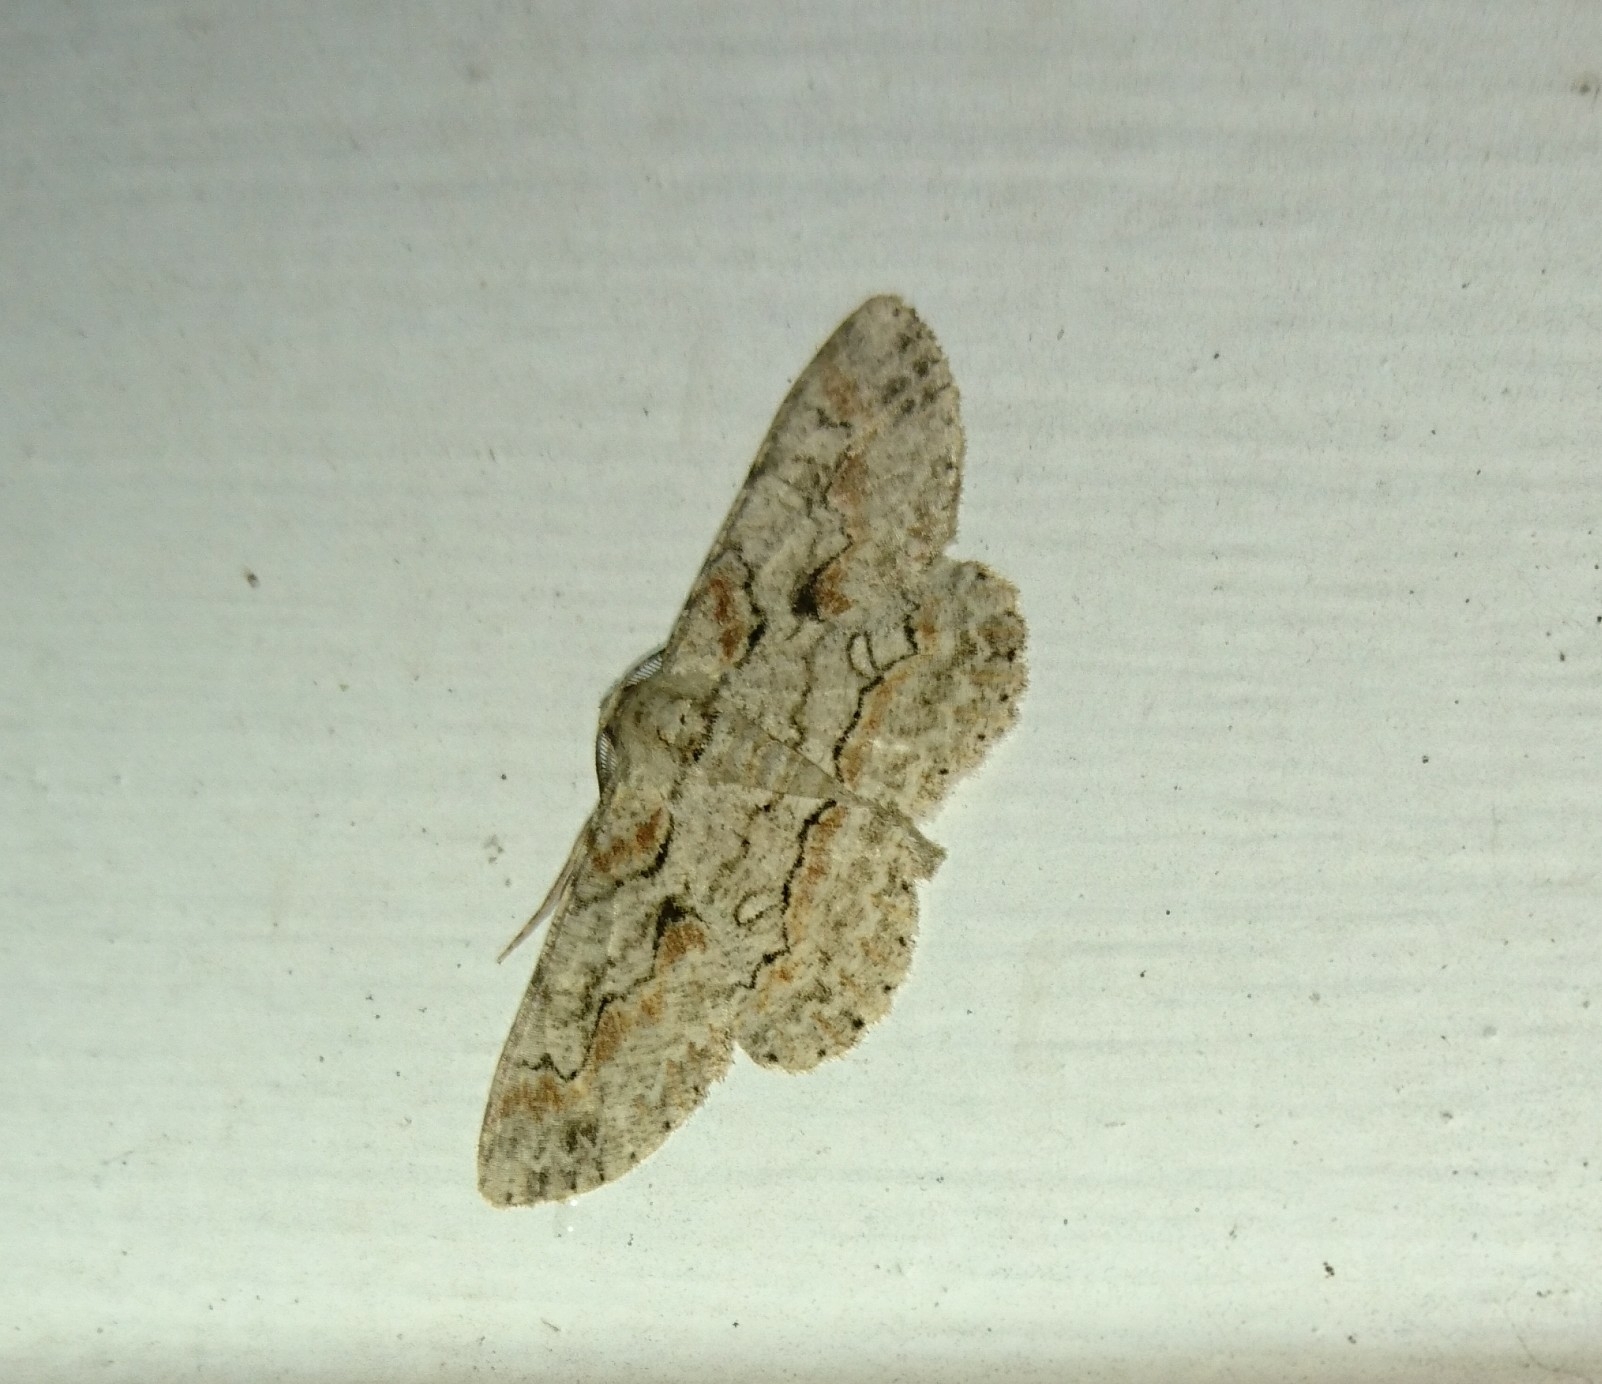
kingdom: Animalia
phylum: Arthropoda
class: Insecta
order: Lepidoptera
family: Geometridae
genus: Iridopsis
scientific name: Iridopsis defectaria
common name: Brown-shaded gray
